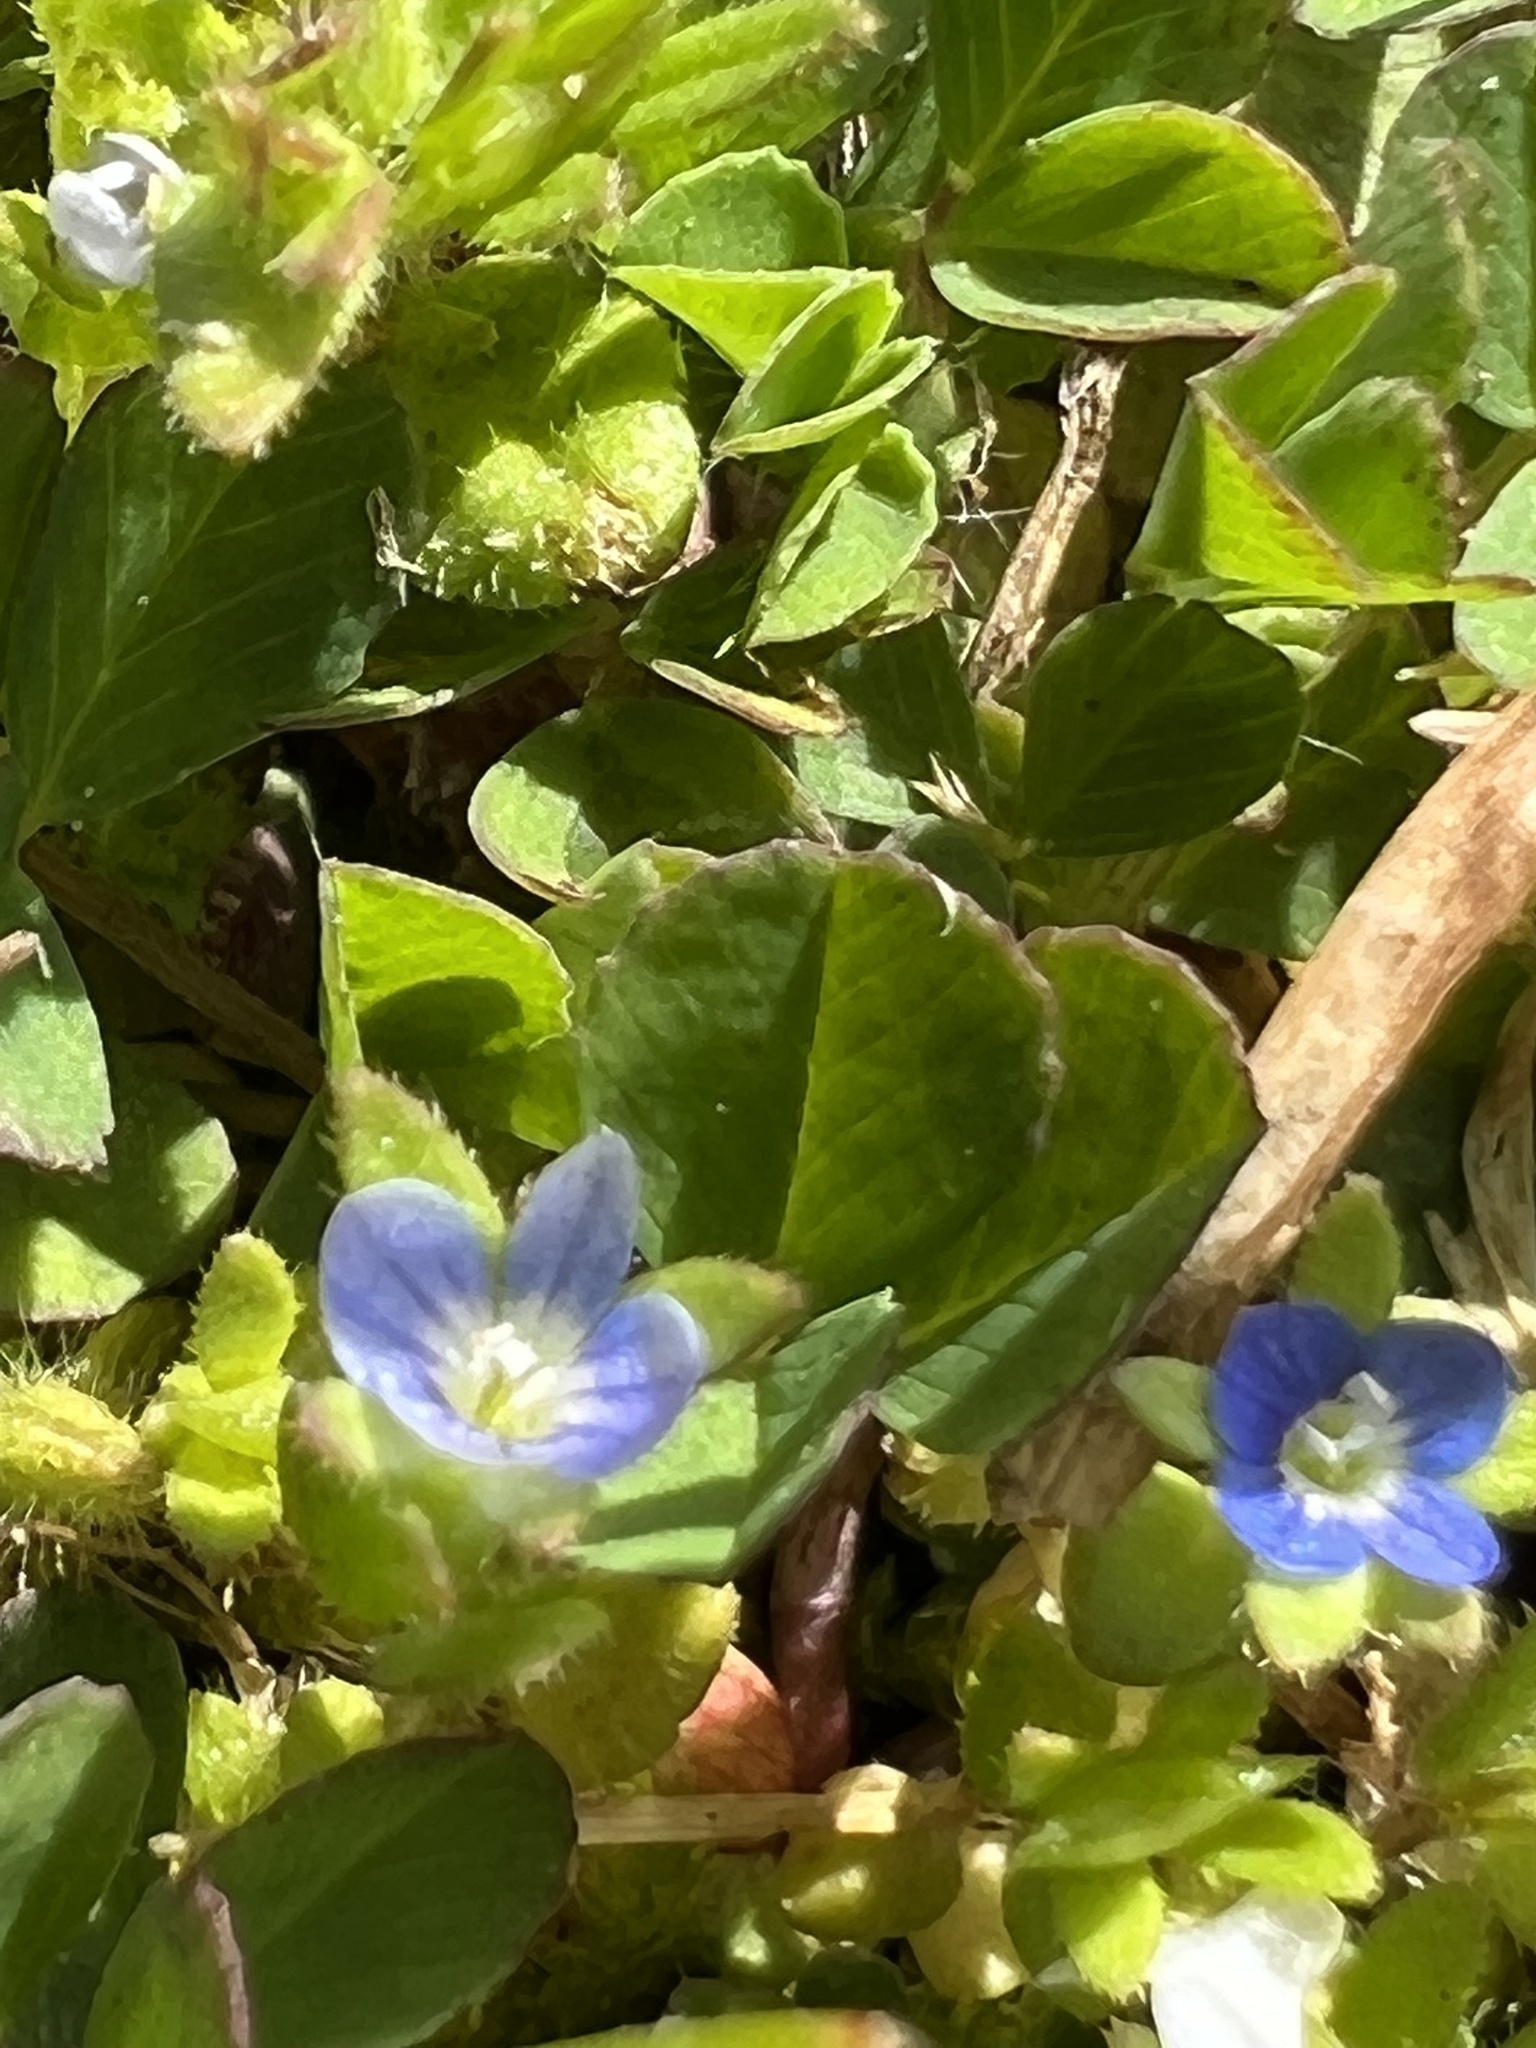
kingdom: Plantae
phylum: Tracheophyta
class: Magnoliopsida
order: Lamiales
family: Plantaginaceae
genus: Veronica
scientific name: Veronica arvensis
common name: Corn speedwell
